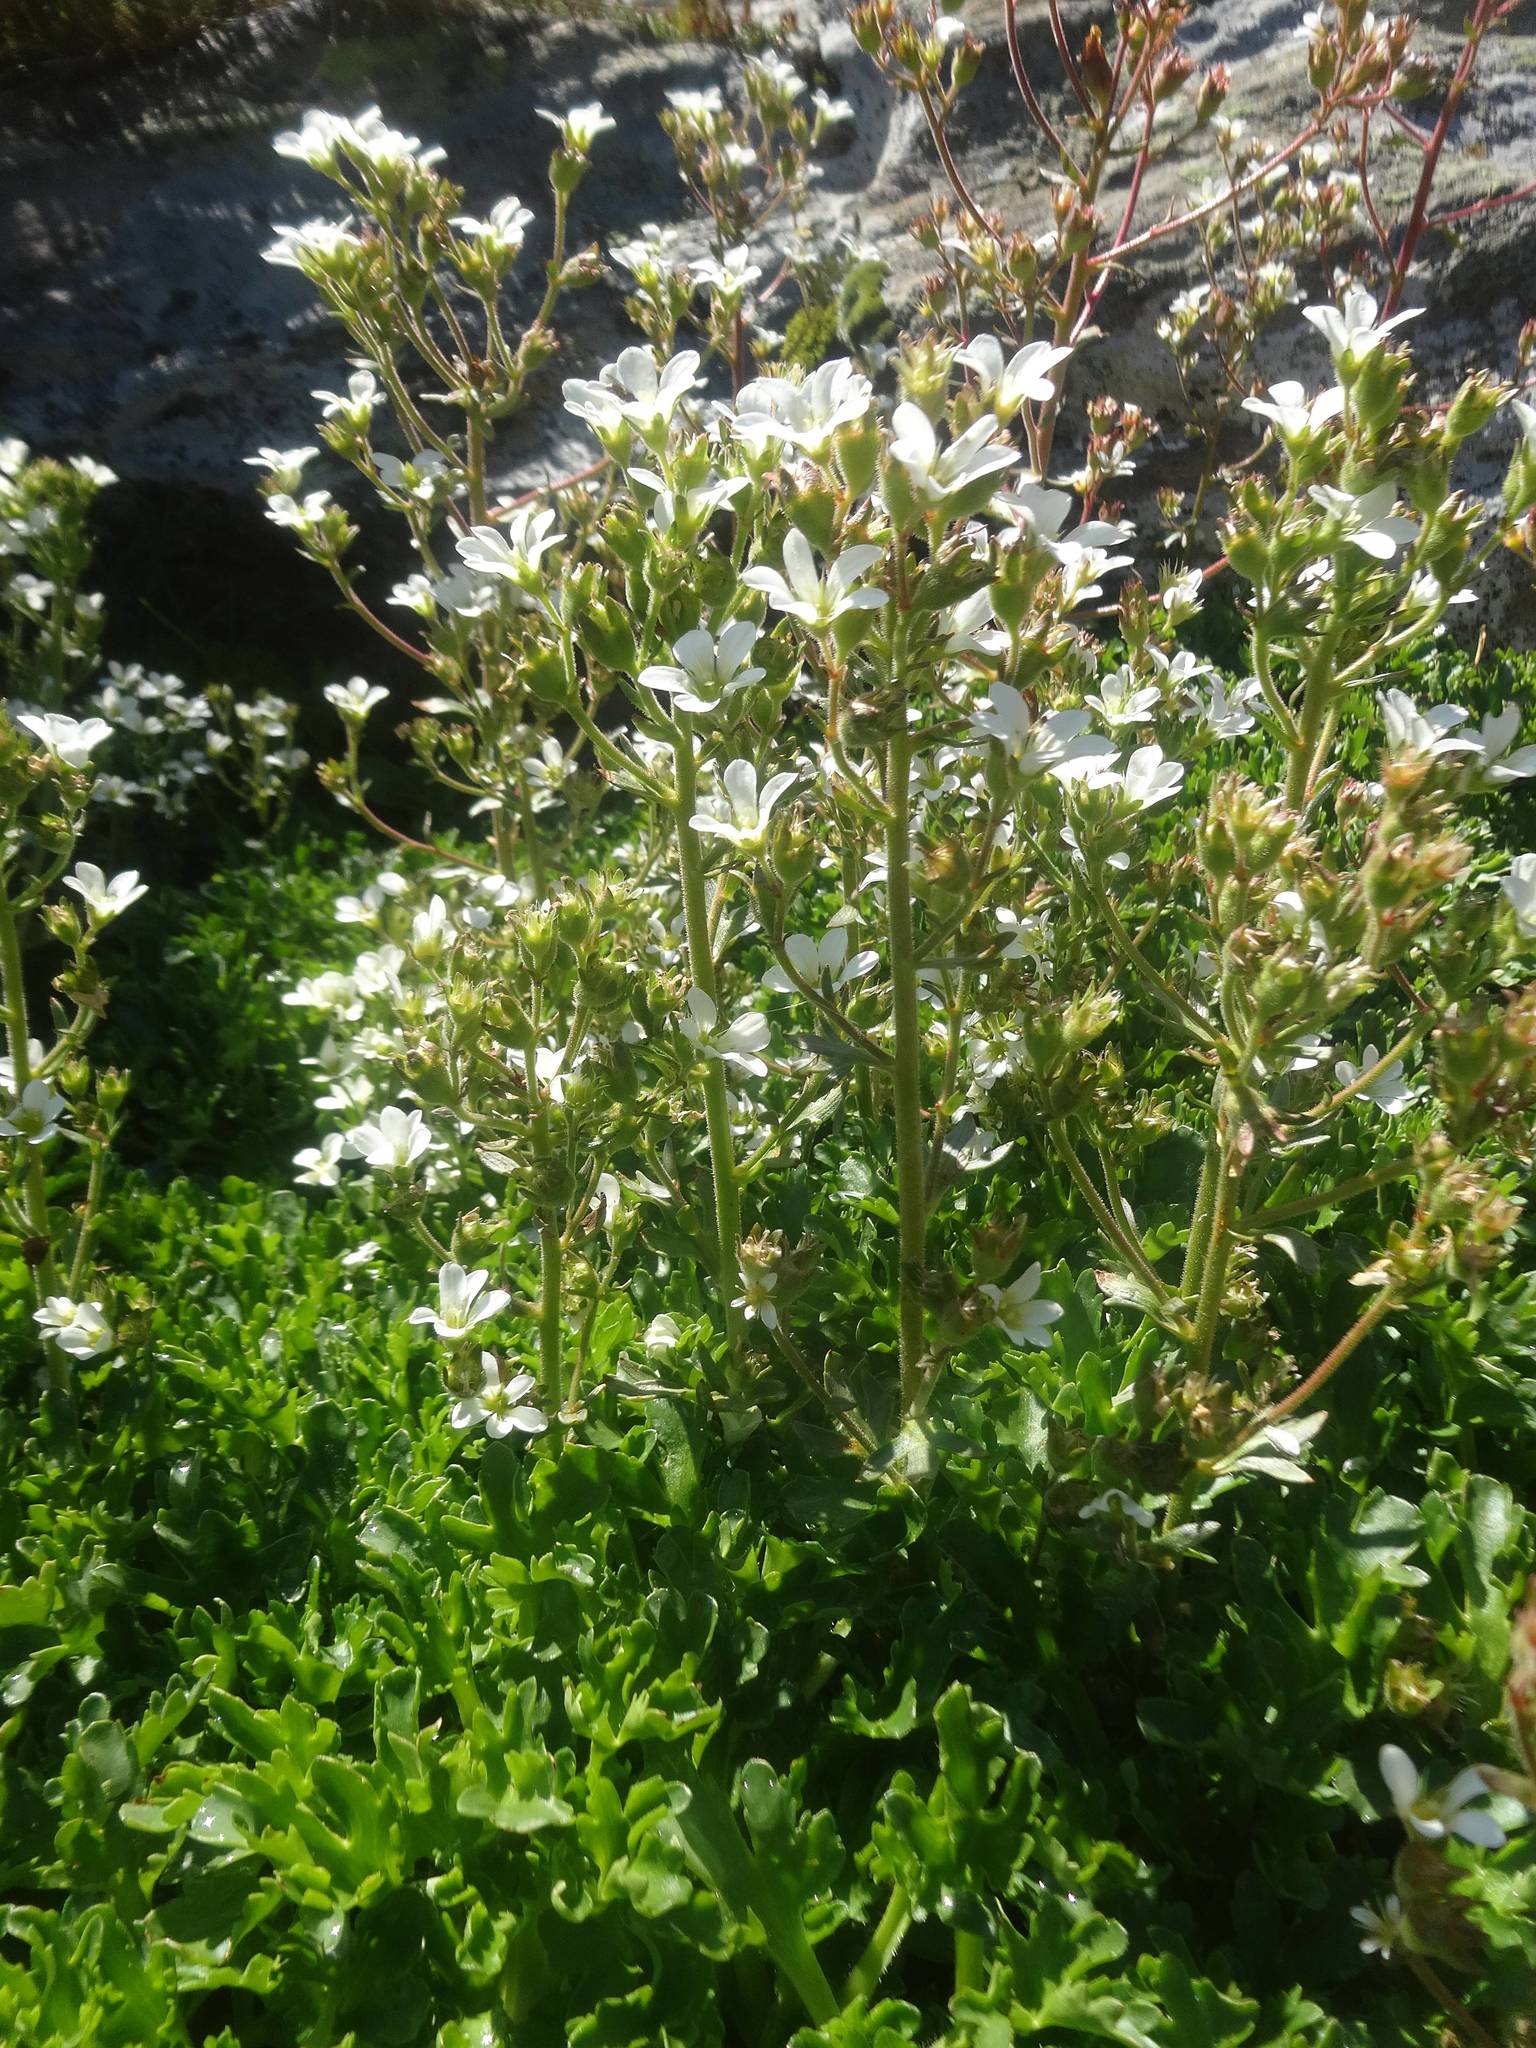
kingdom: Plantae
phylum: Tracheophyta
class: Magnoliopsida
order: Saxifragales
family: Saxifragaceae
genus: Saxifraga
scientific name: Saxifraga aquatica
